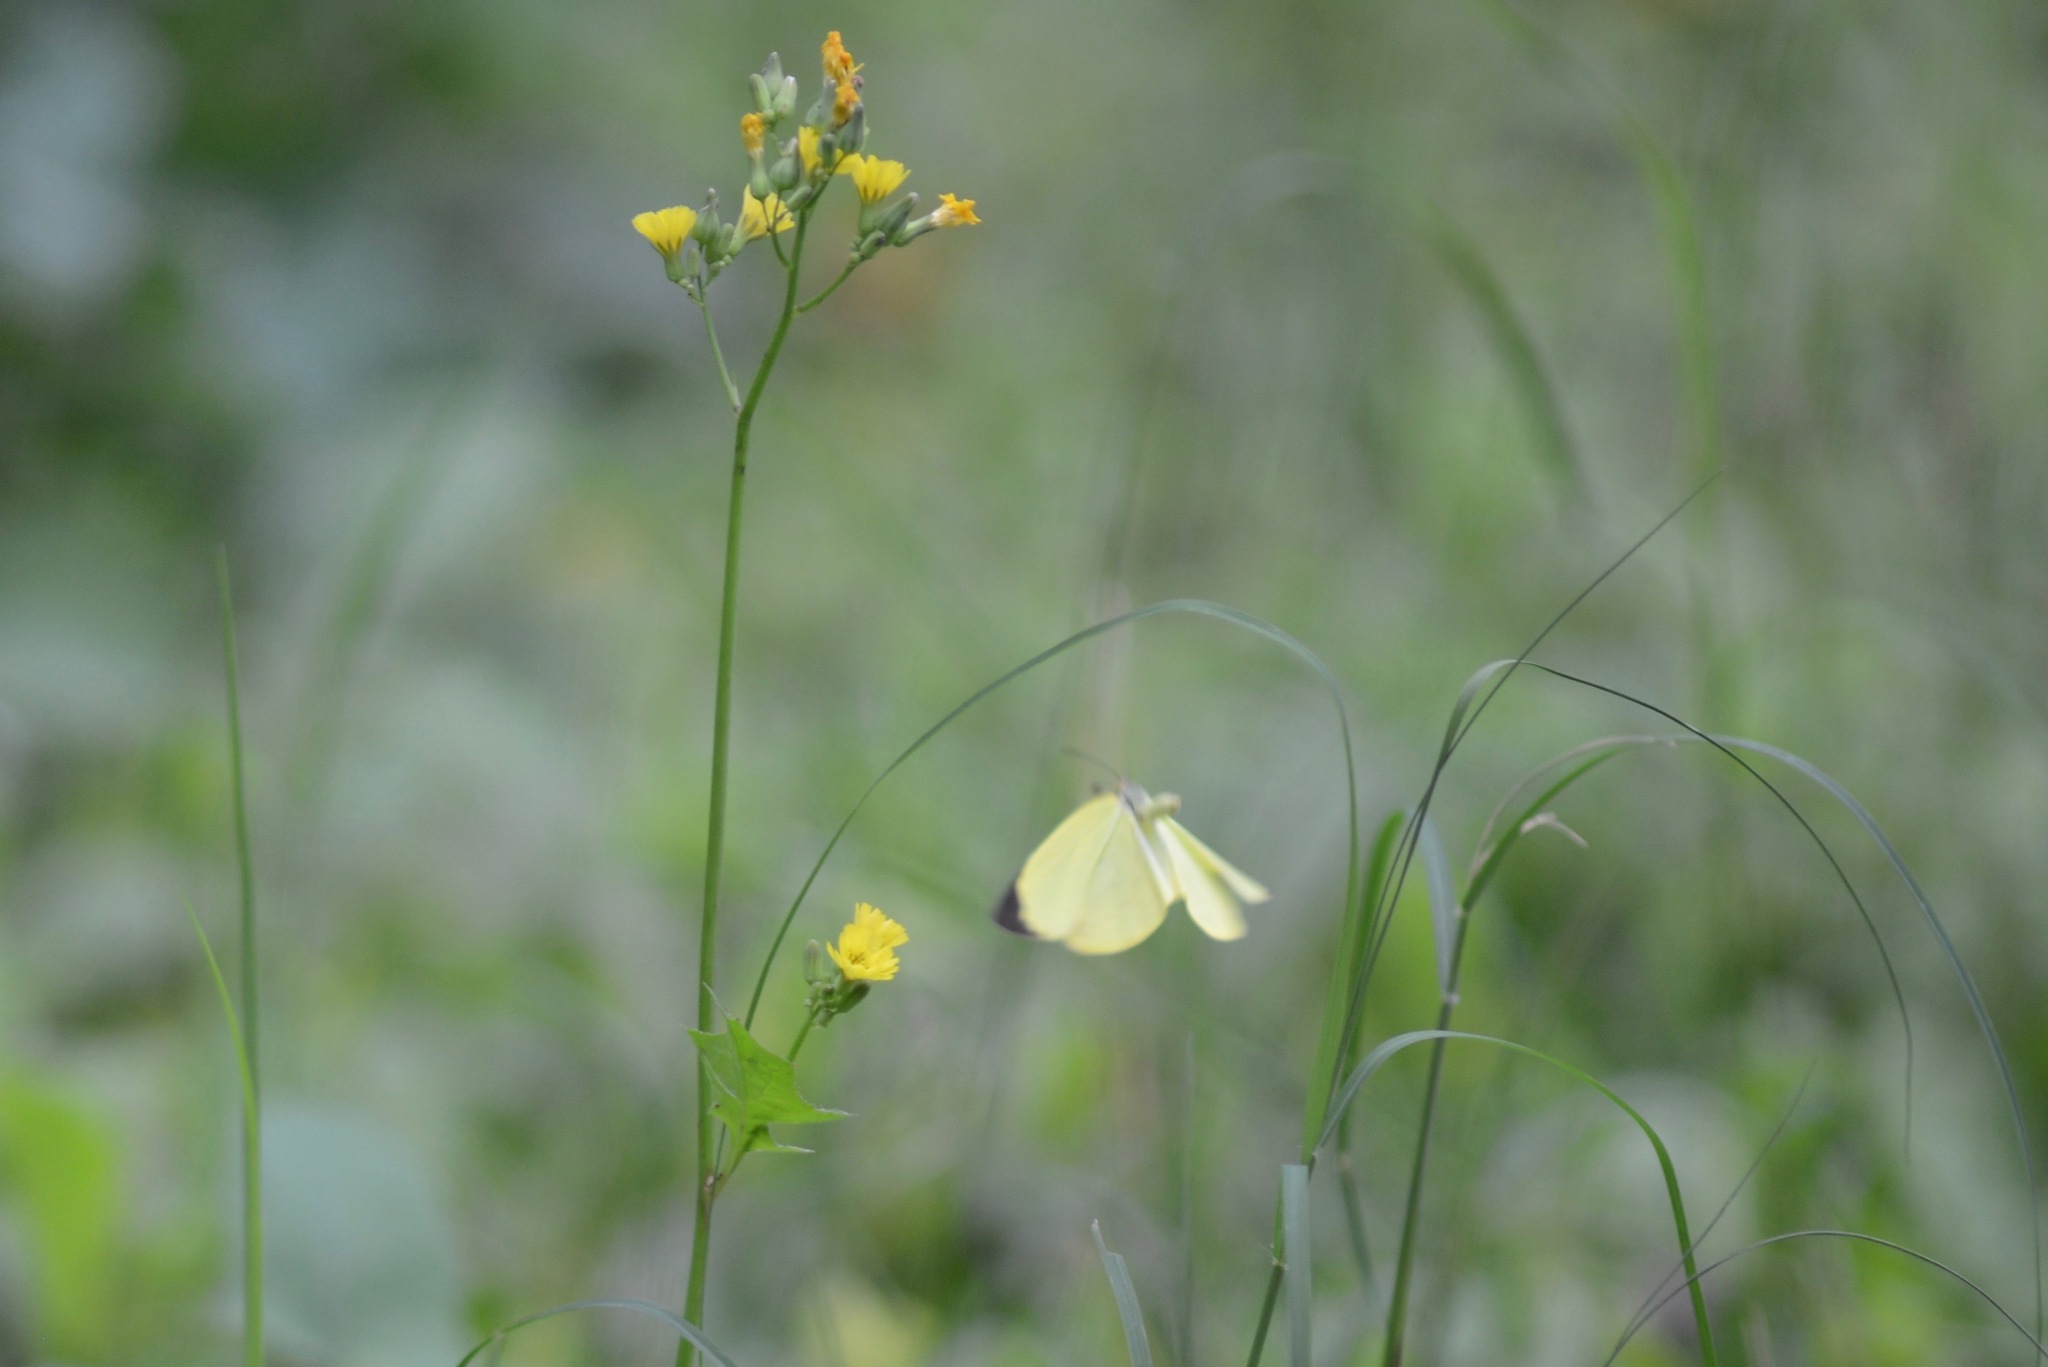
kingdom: Animalia
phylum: Arthropoda
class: Insecta
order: Lepidoptera
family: Pieridae
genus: Pyrisitia
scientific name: Pyrisitia leuce
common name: Hall's sulfur
